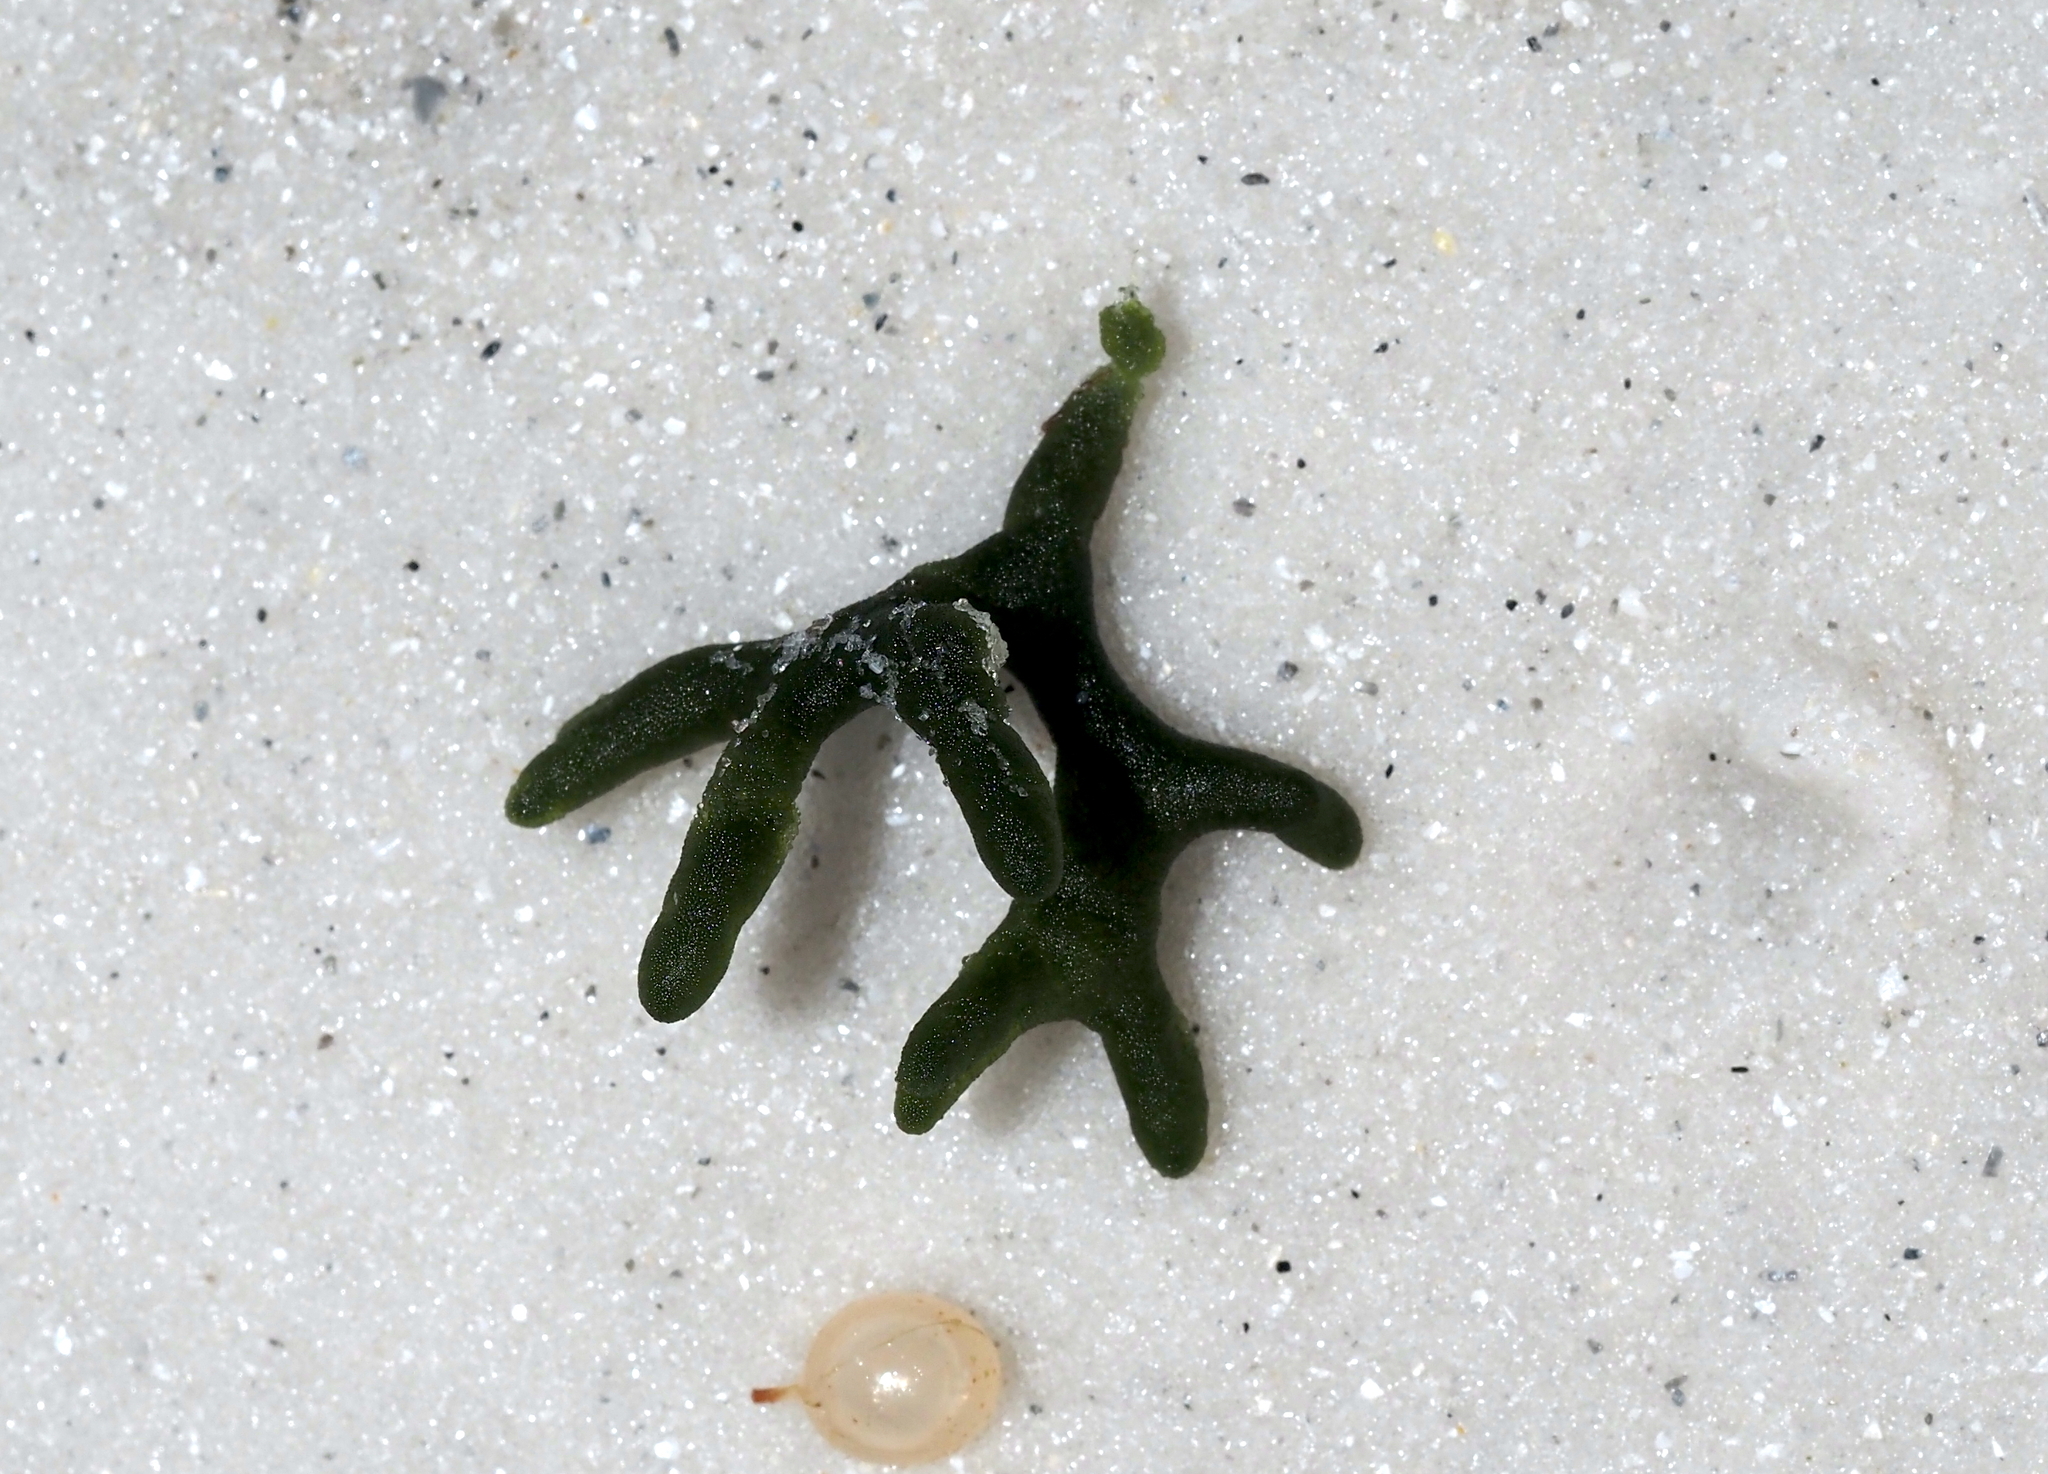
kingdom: Plantae
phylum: Chlorophyta
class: Ulvophyceae
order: Bryopsidales
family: Codiaceae
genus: Codium
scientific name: Codium fragile
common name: Dead man's fingers
